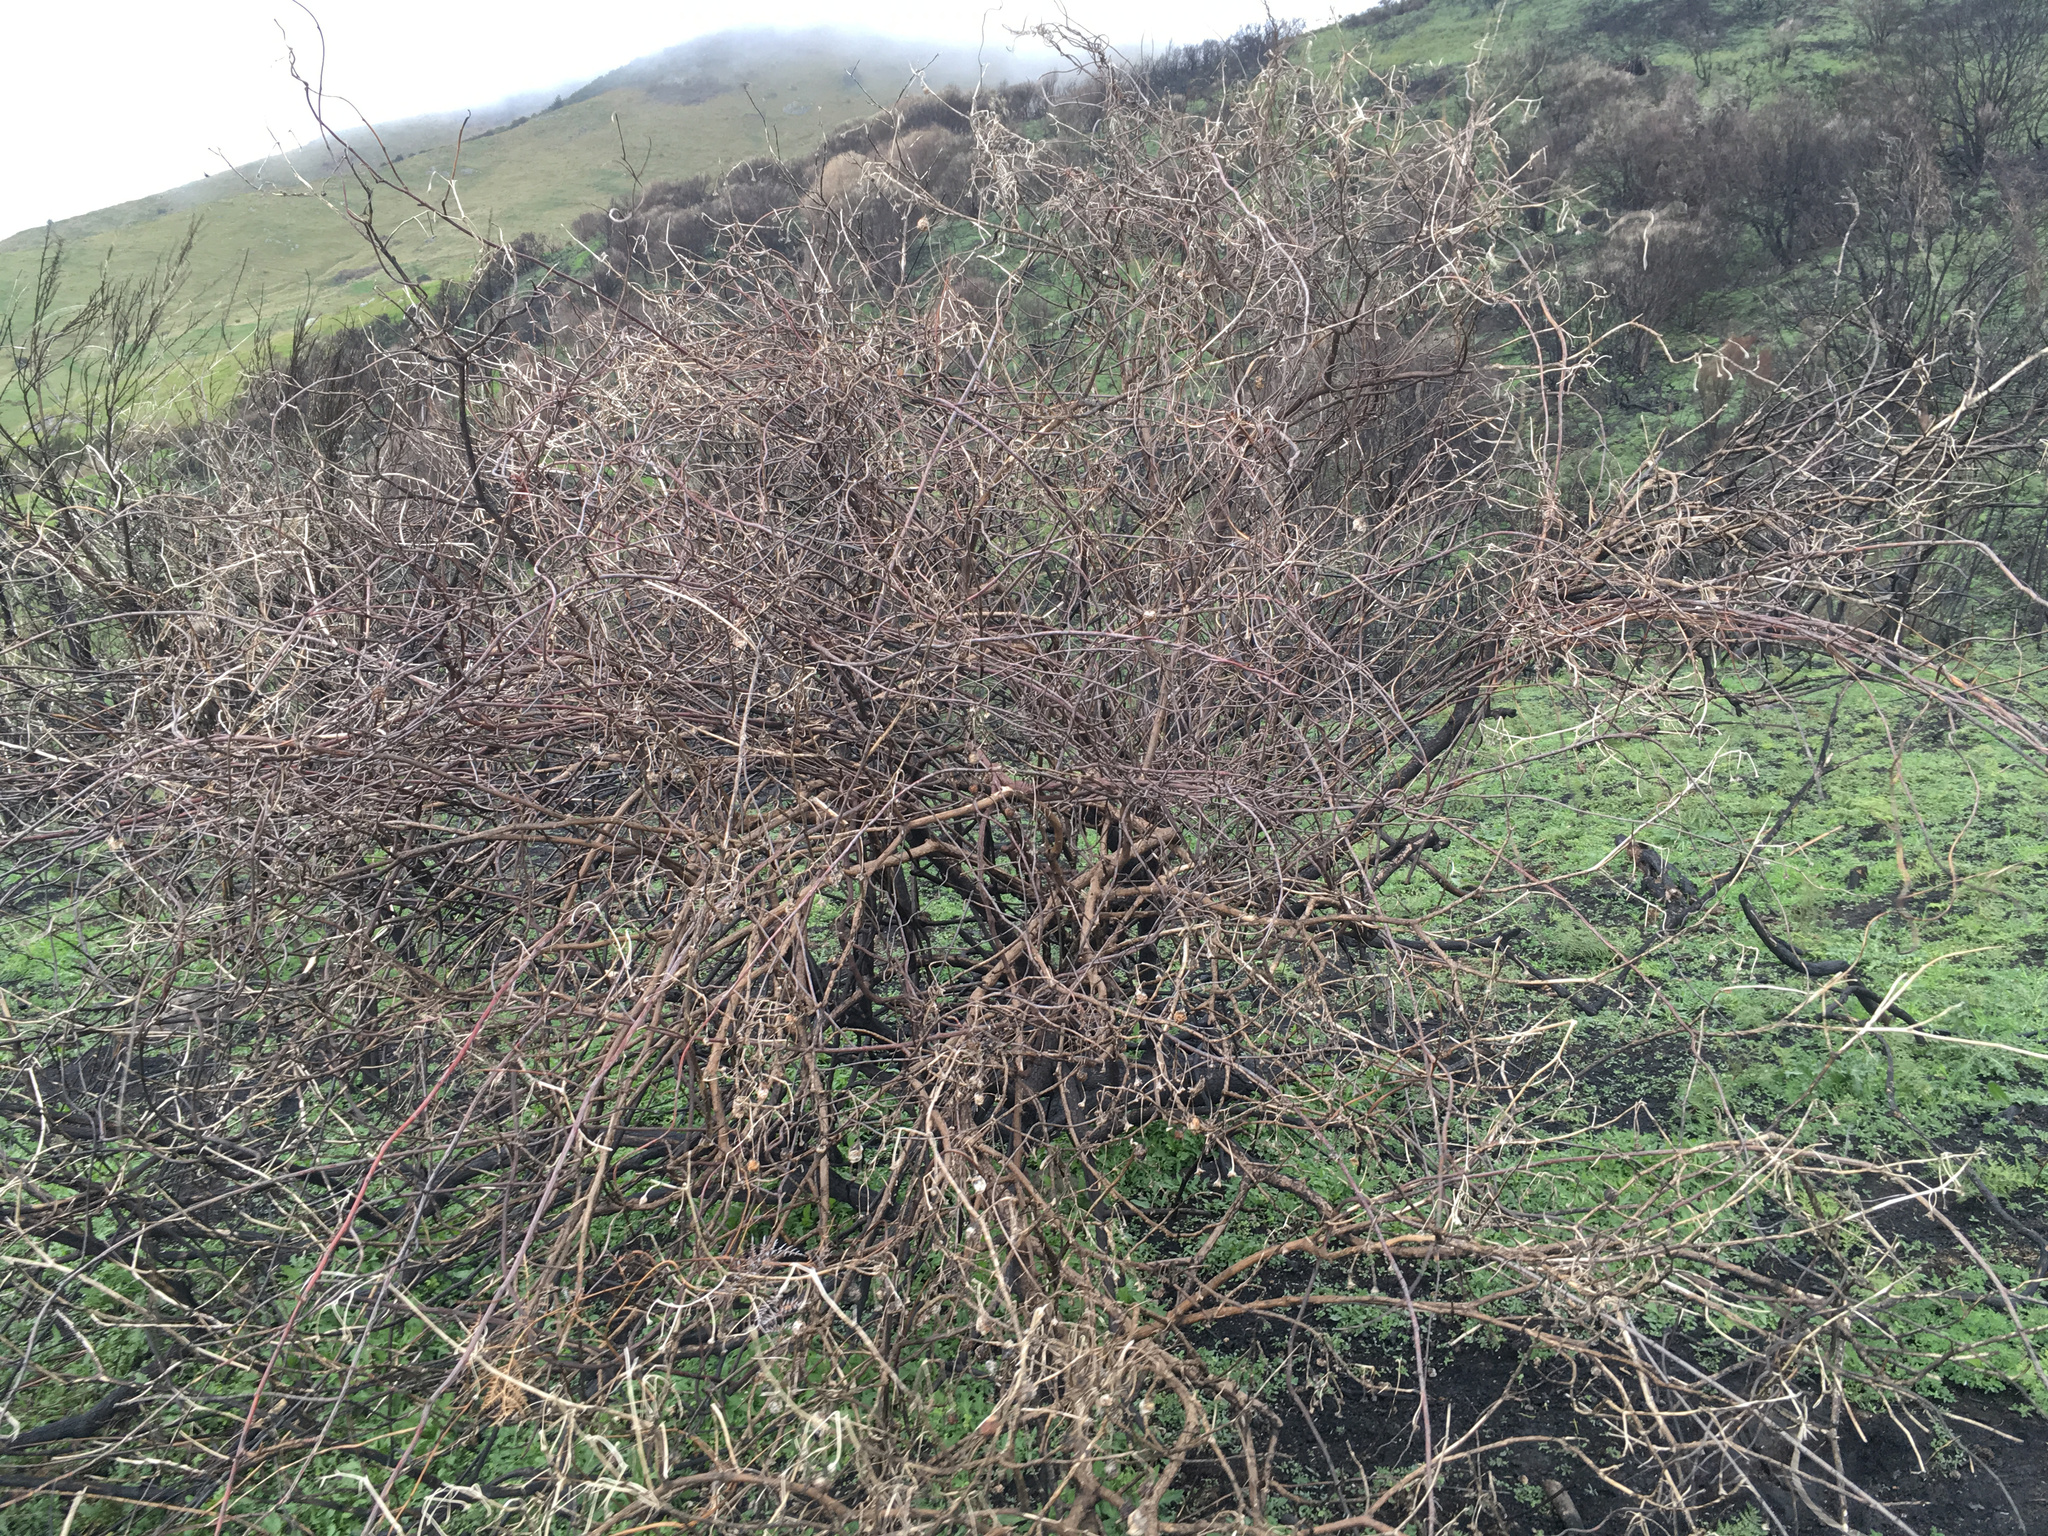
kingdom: Plantae
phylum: Tracheophyta
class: Magnoliopsida
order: Caryophyllales
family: Polygonaceae
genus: Muehlenbeckia
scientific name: Muehlenbeckia australis
